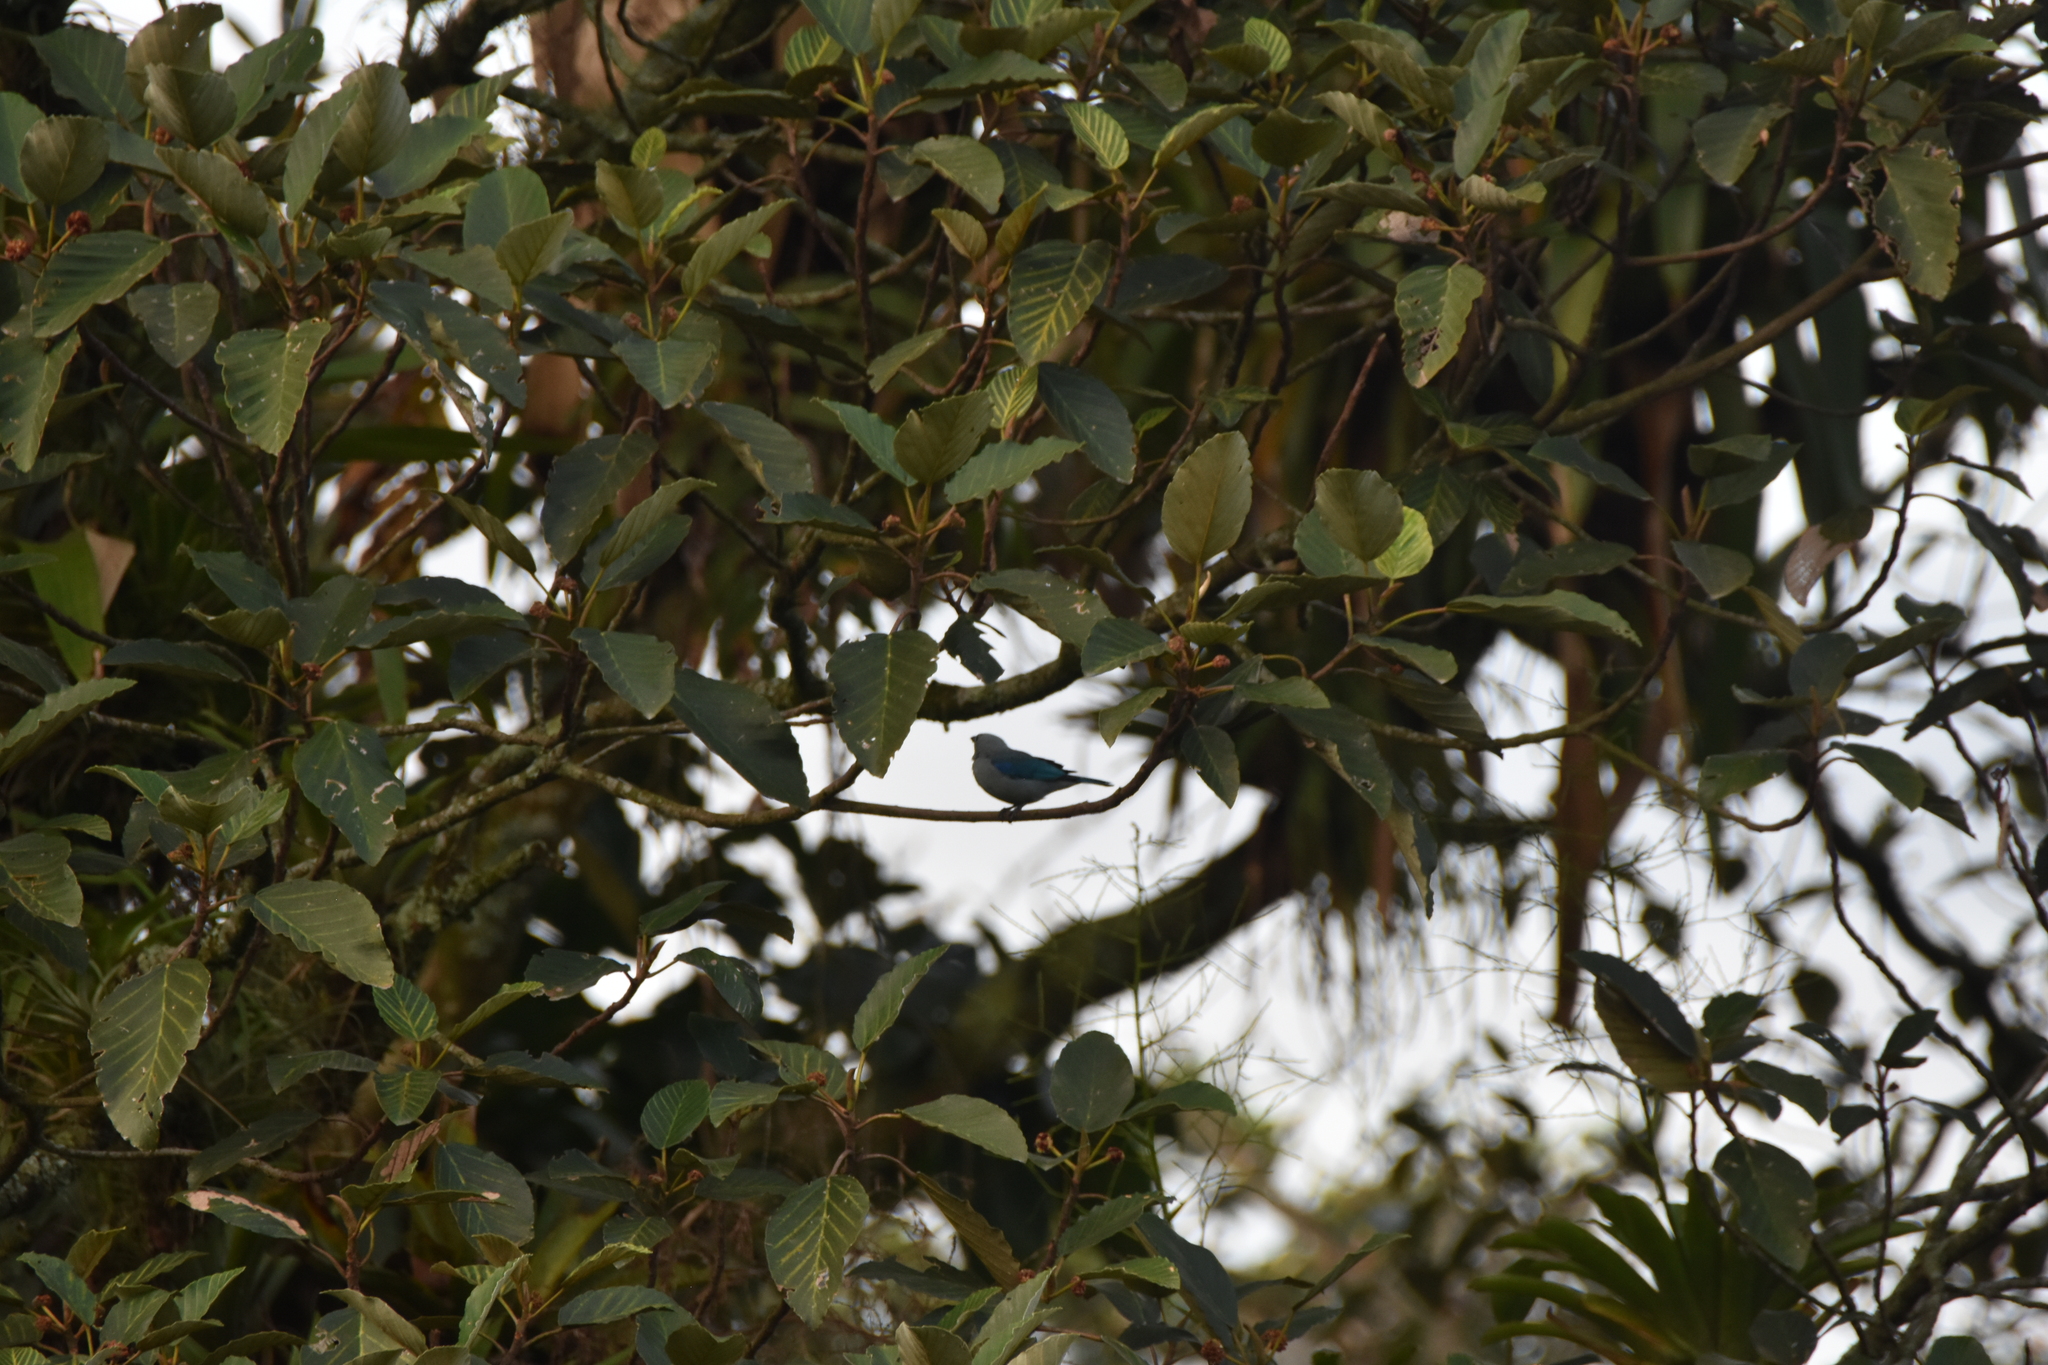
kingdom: Animalia
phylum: Chordata
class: Aves
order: Passeriformes
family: Thraupidae
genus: Thraupis
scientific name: Thraupis episcopus
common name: Blue-grey tanager
